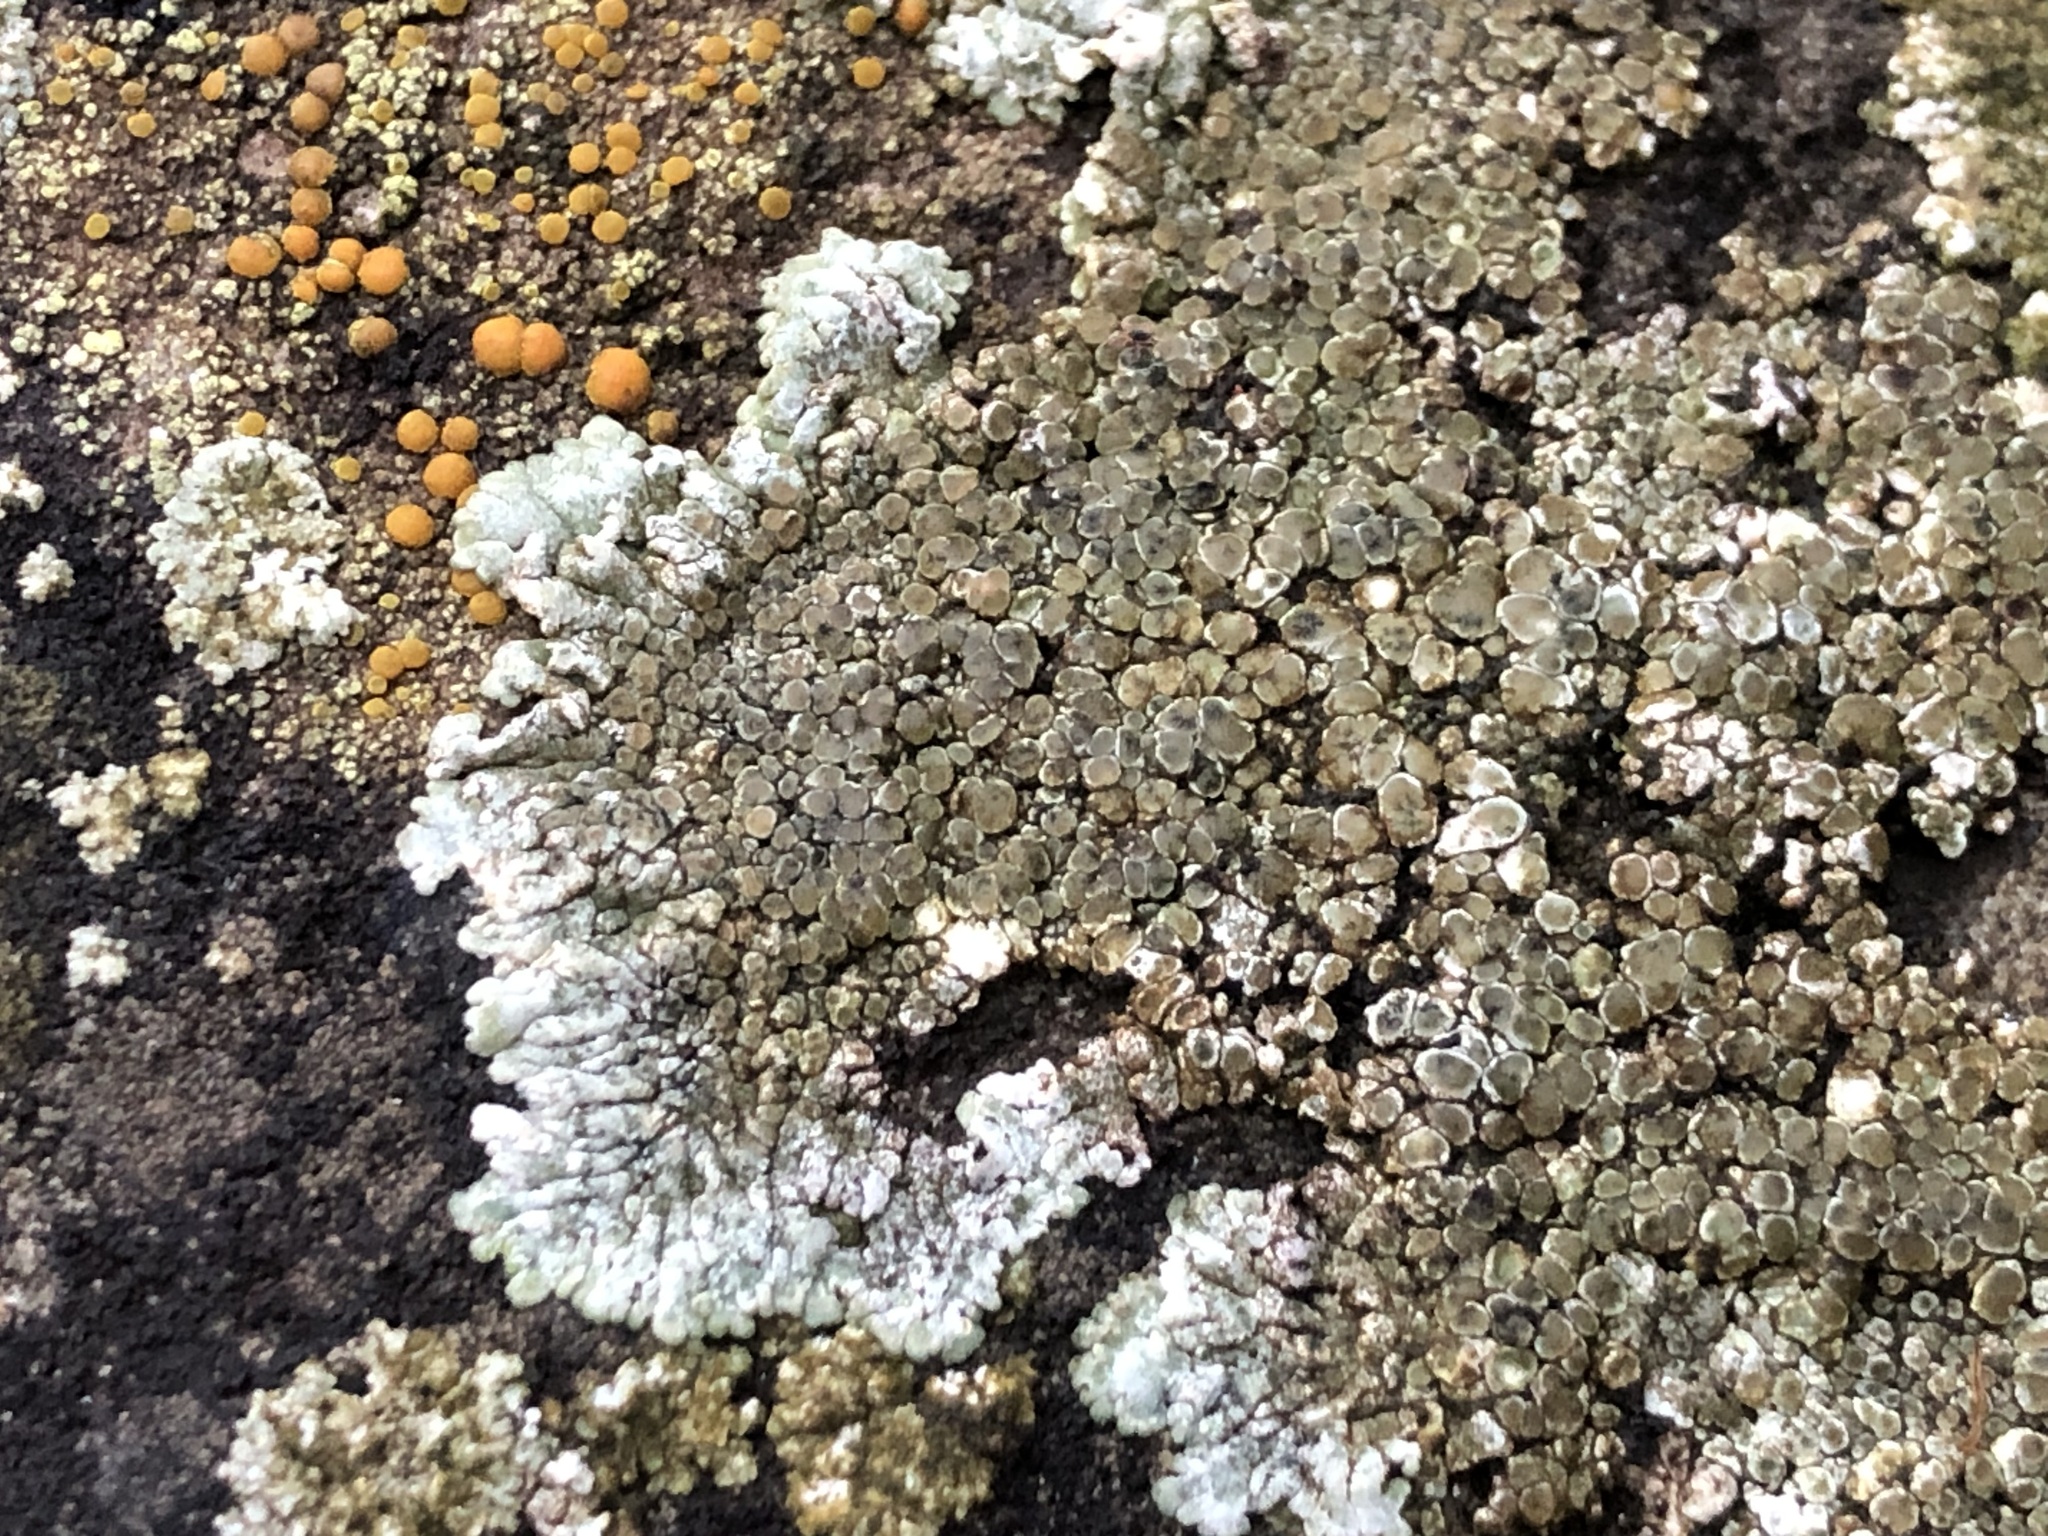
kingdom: Fungi
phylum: Ascomycota
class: Lecanoromycetes
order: Lecanorales
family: Lecanoraceae
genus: Protoparmeliopsis
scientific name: Protoparmeliopsis muralis
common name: Stonewall rim lichen
